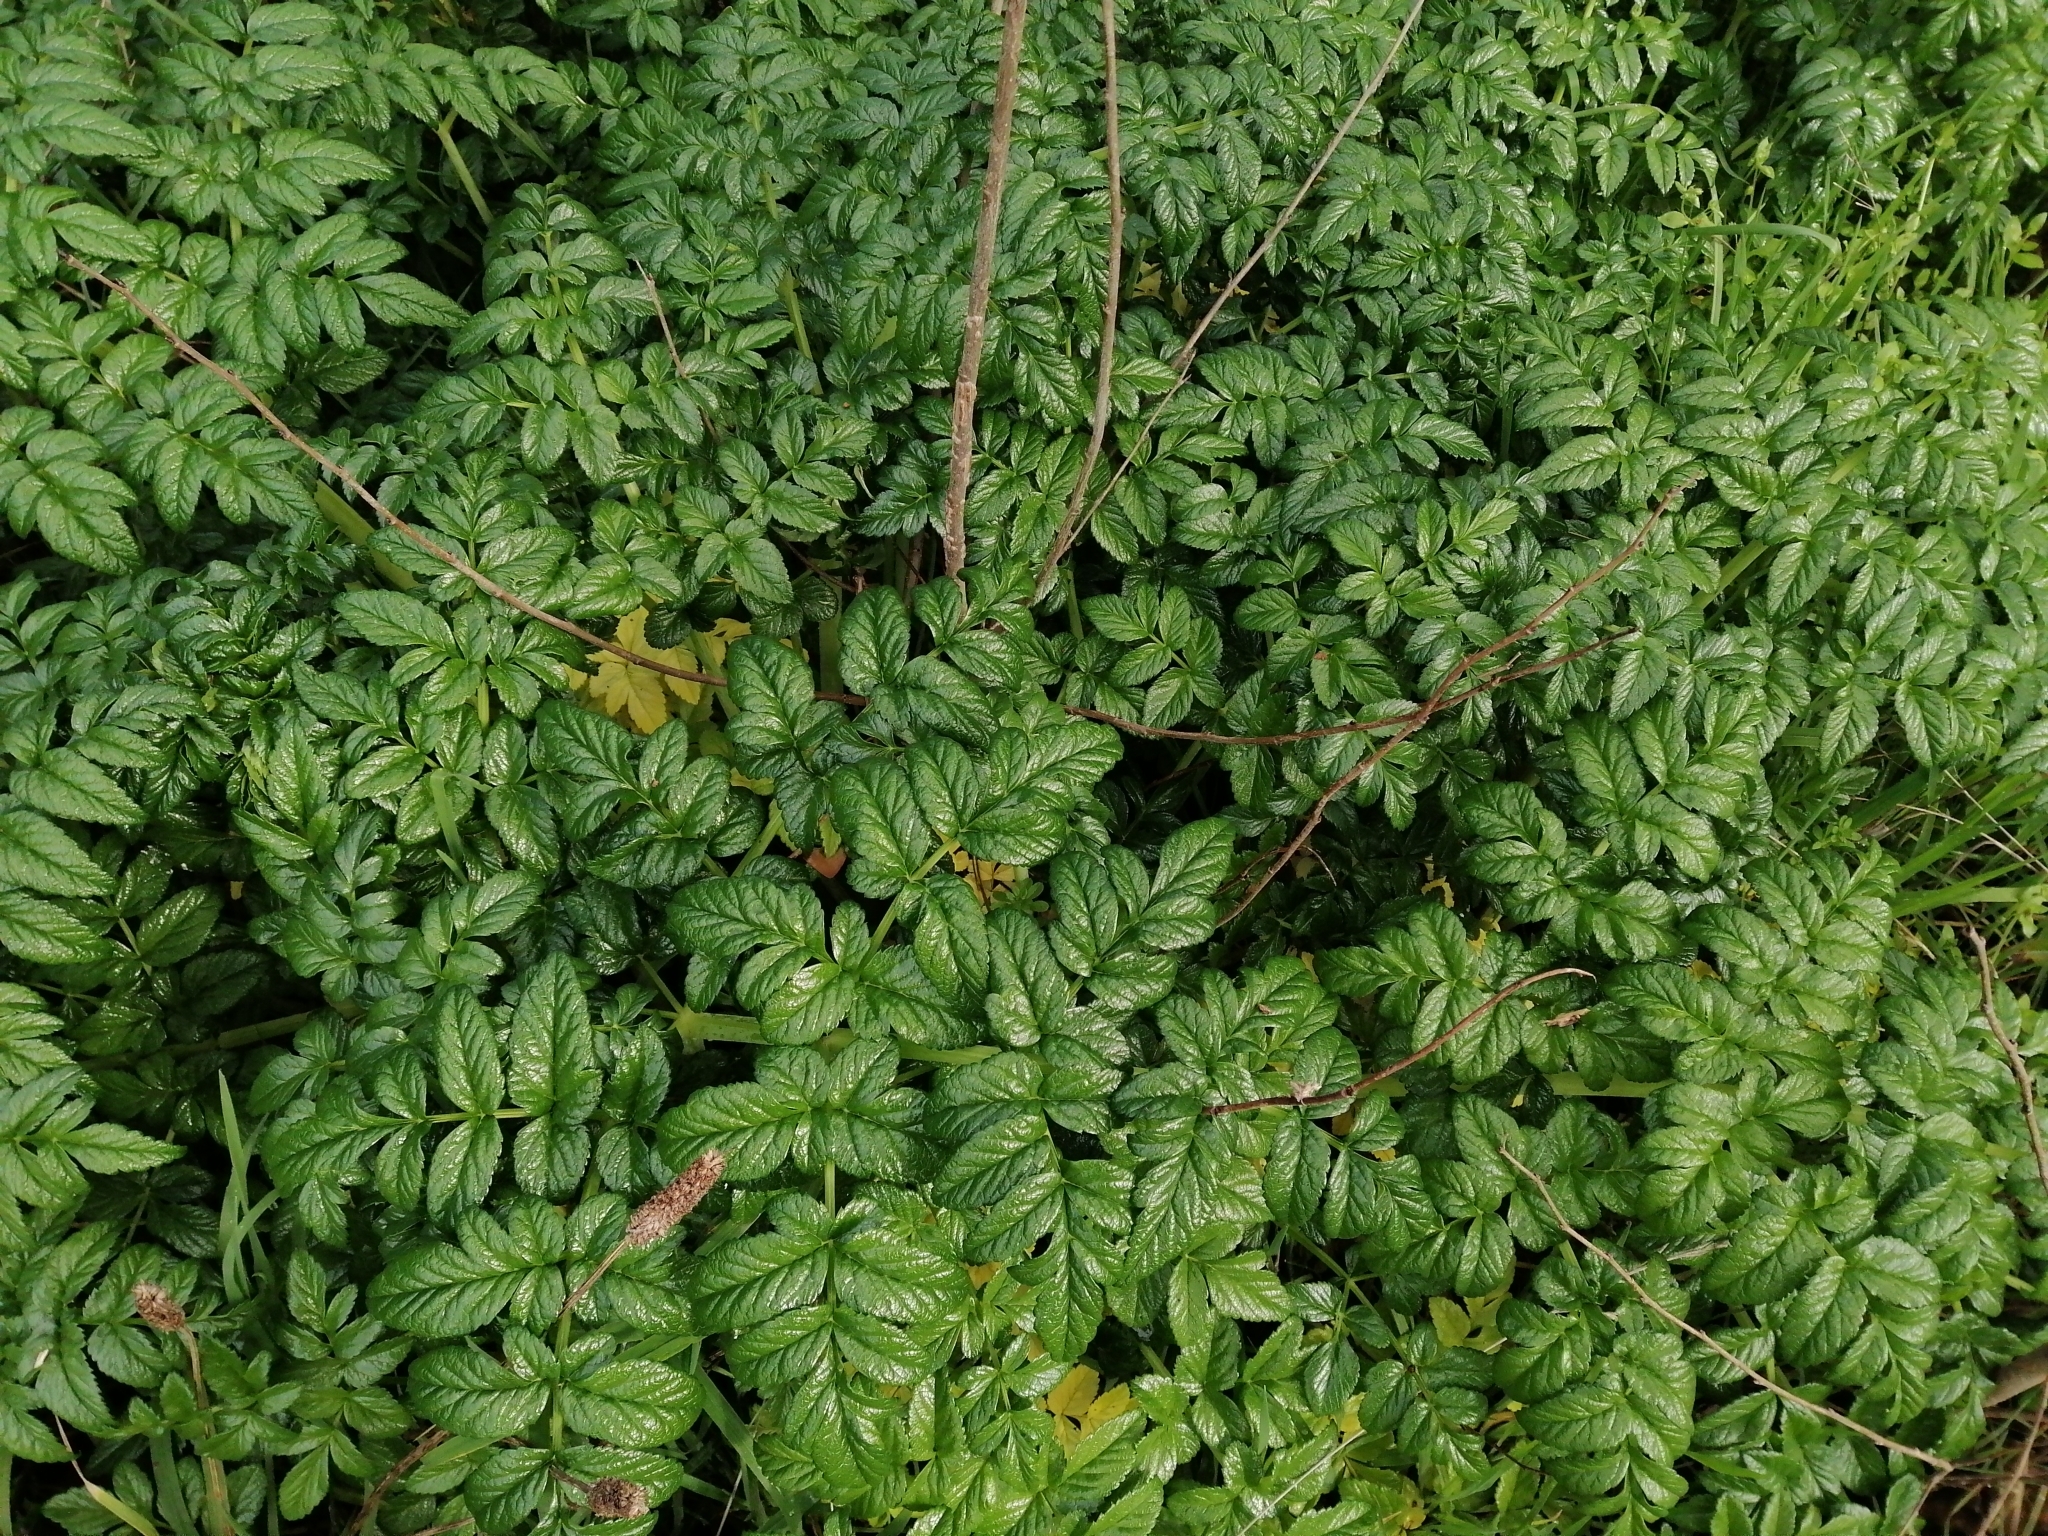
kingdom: Plantae
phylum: Tracheophyta
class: Magnoliopsida
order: Apiales
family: Apiaceae
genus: Angelica
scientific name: Angelica pachycarpa
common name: Portuguese angelica
